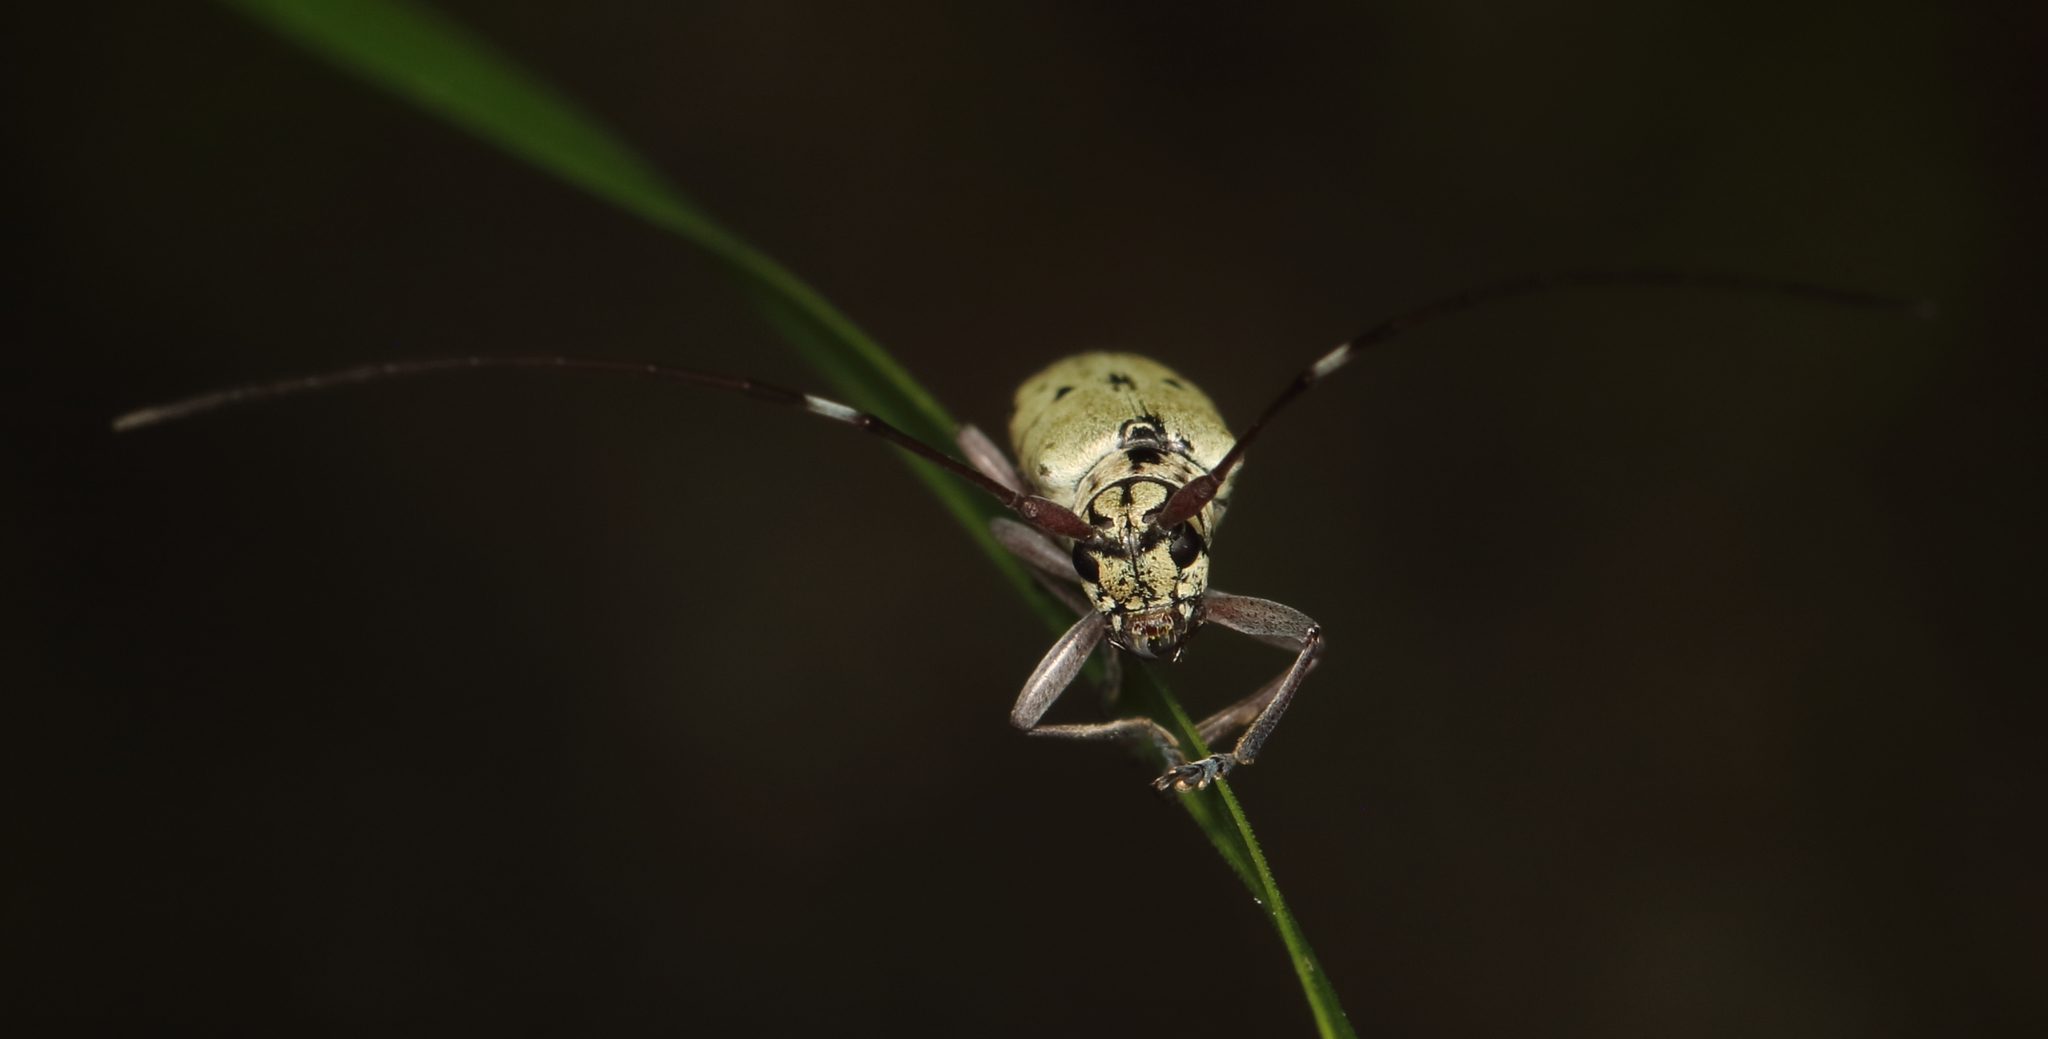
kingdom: Animalia
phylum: Arthropoda
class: Insecta
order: Coleoptera
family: Cerambycidae
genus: Prosopocera
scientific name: Prosopocera maculosa
